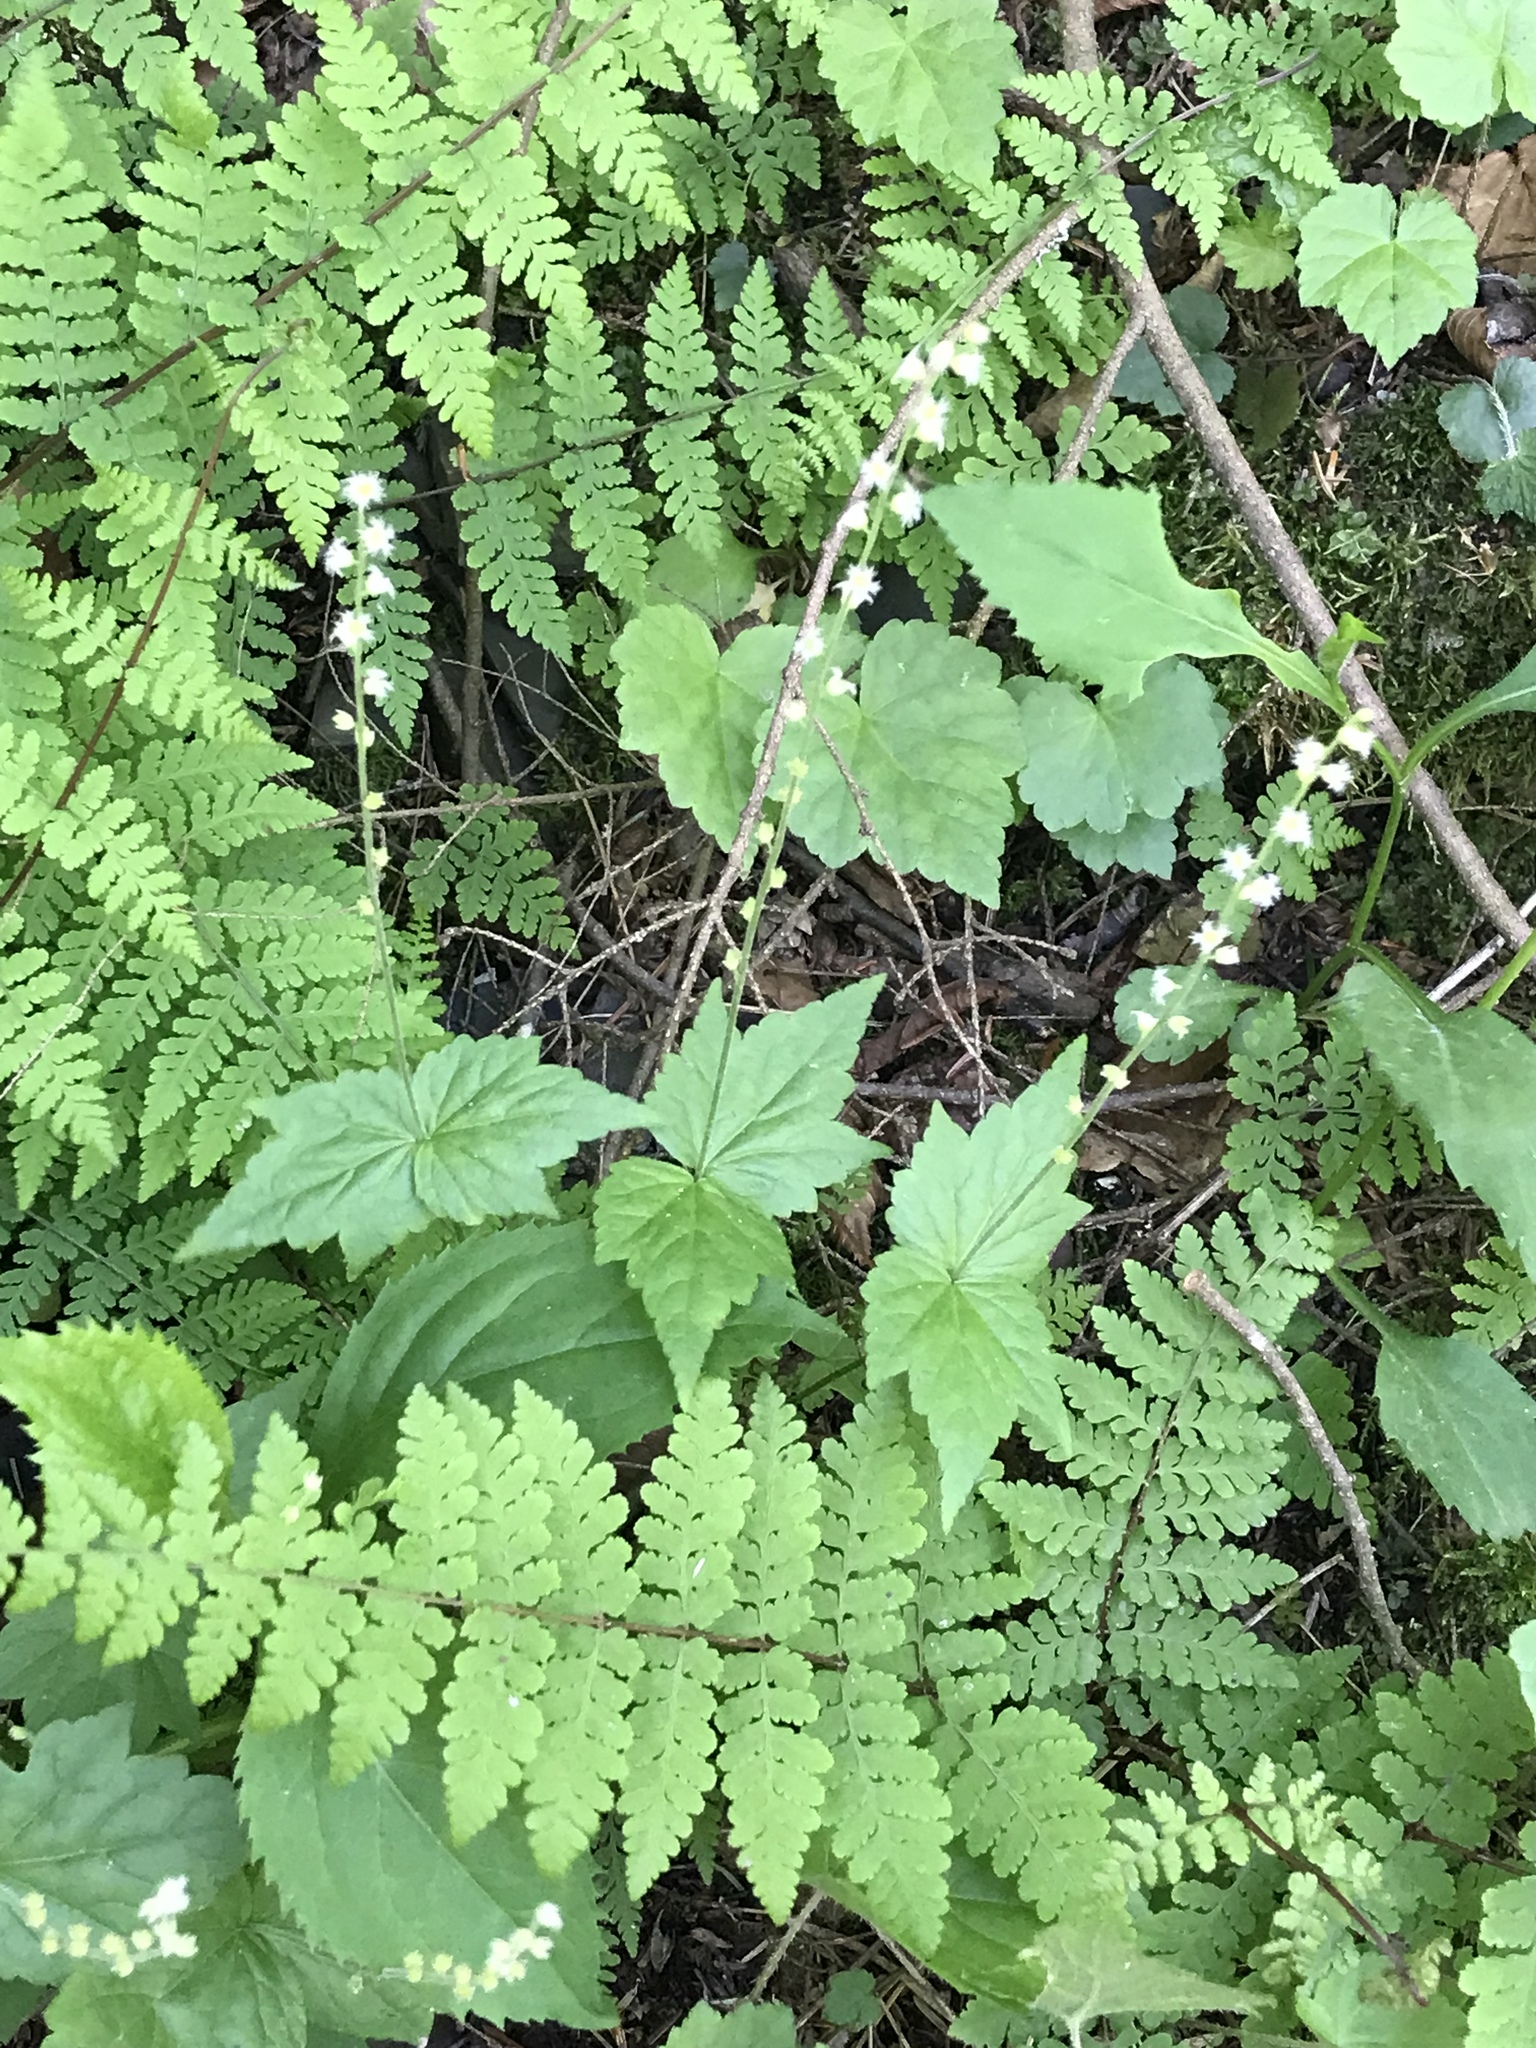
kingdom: Plantae
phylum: Tracheophyta
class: Magnoliopsida
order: Saxifragales
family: Saxifragaceae
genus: Mitella
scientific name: Mitella diphylla
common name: Coolwort
